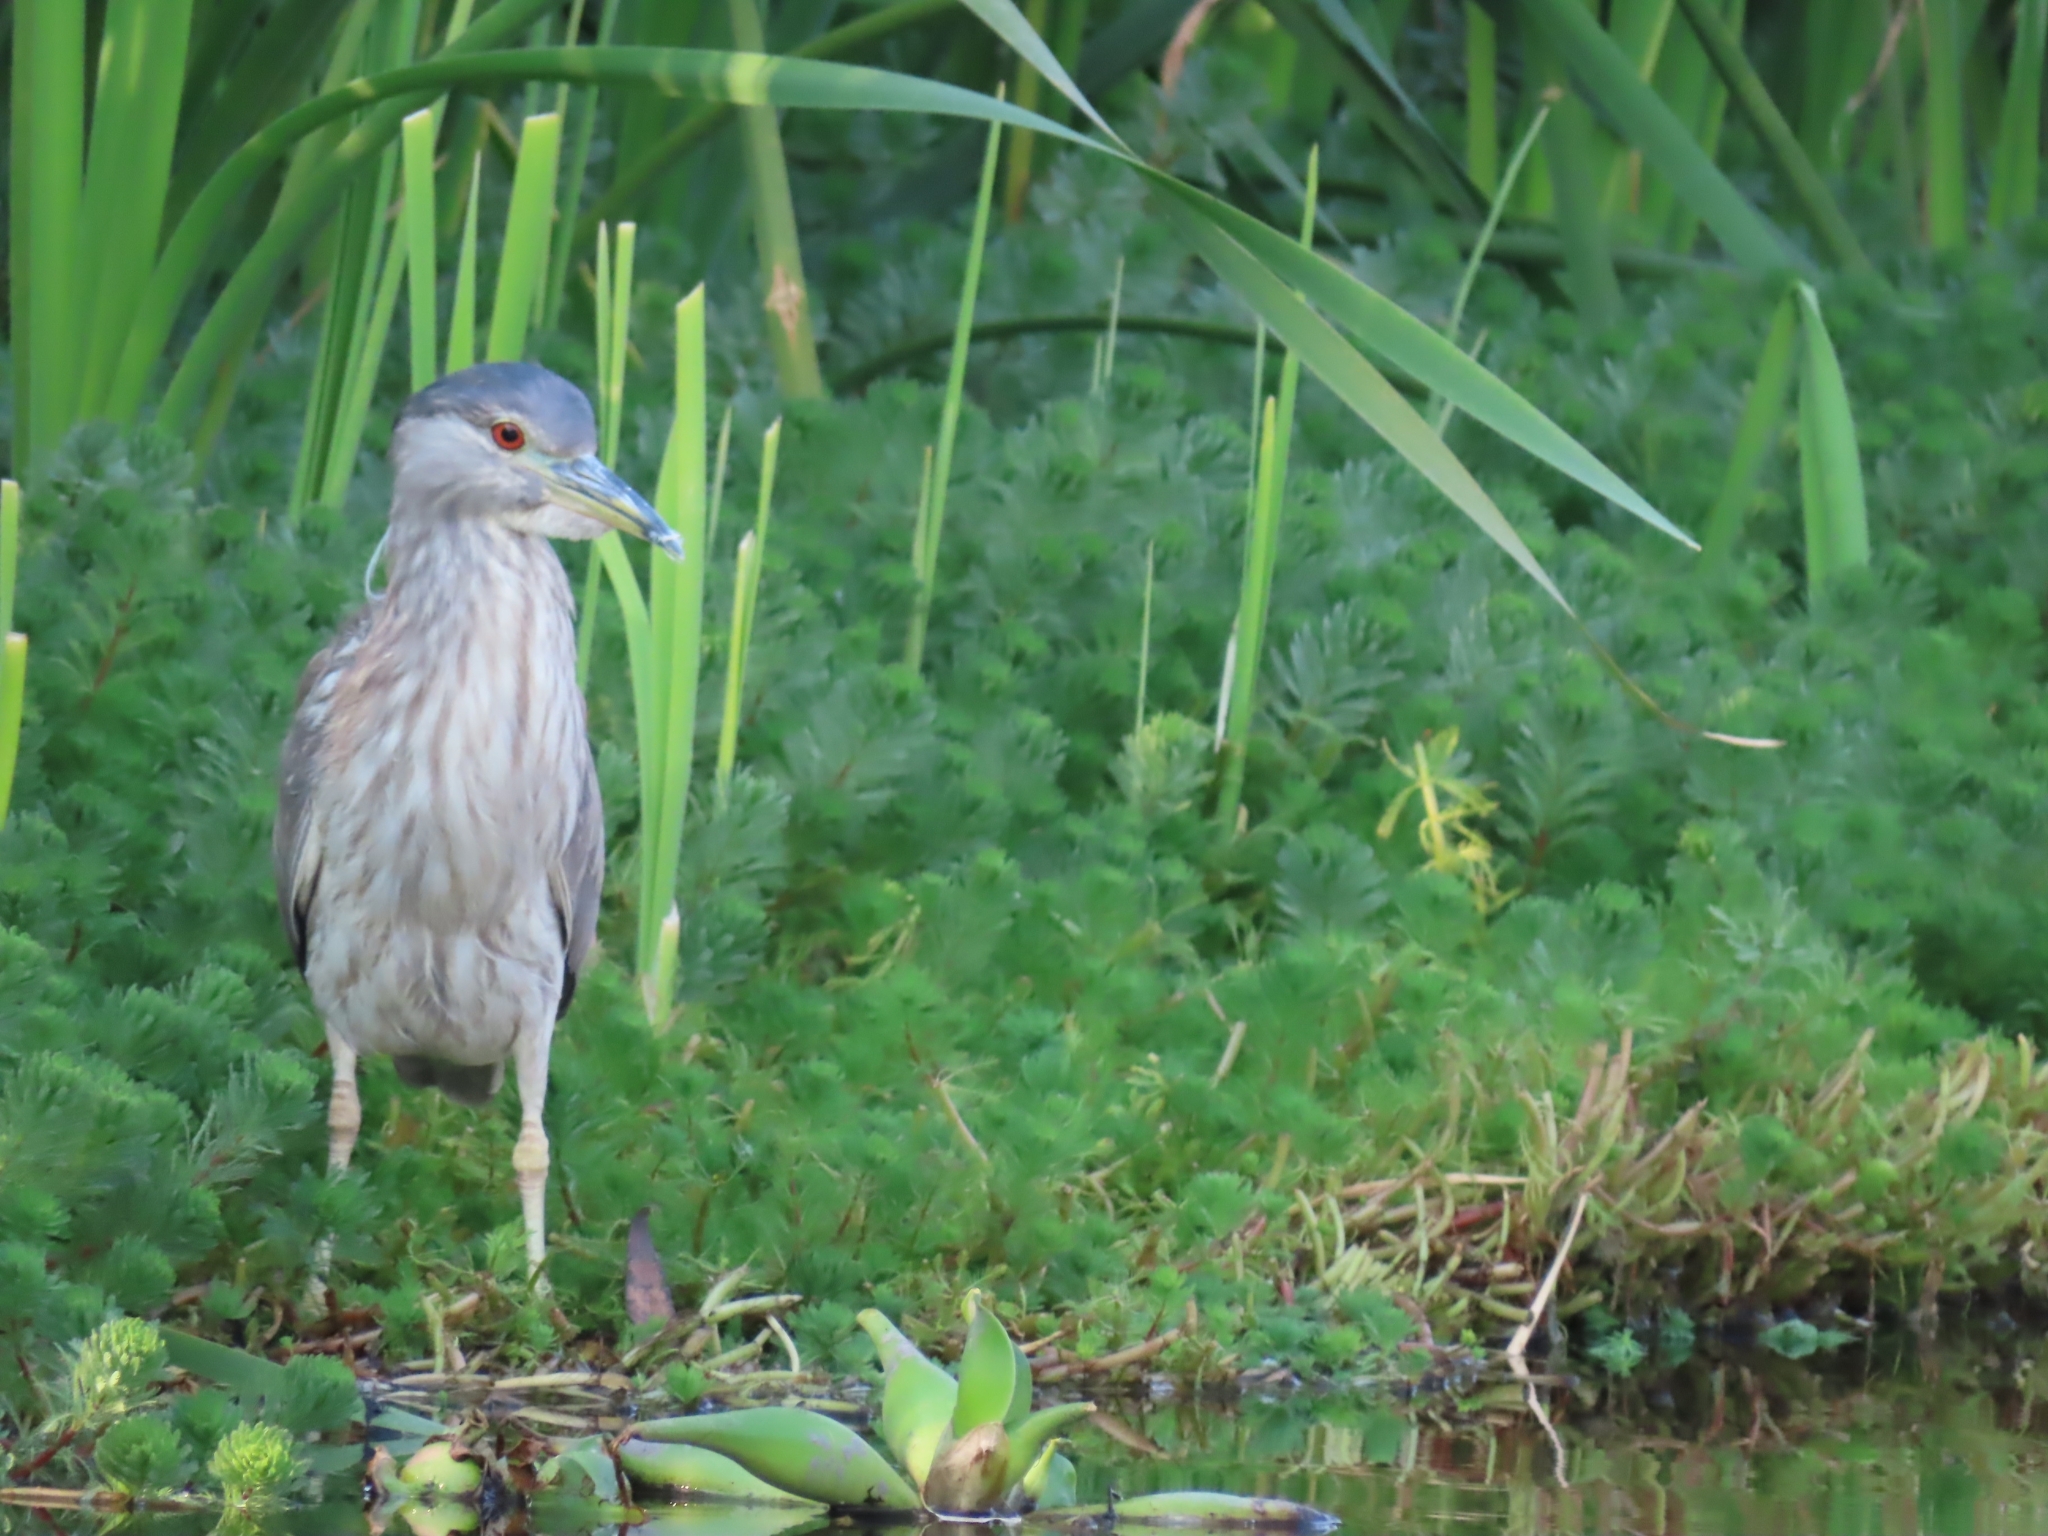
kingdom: Animalia
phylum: Chordata
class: Aves
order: Pelecaniformes
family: Ardeidae
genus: Nycticorax
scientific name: Nycticorax nycticorax
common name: Black-crowned night heron
